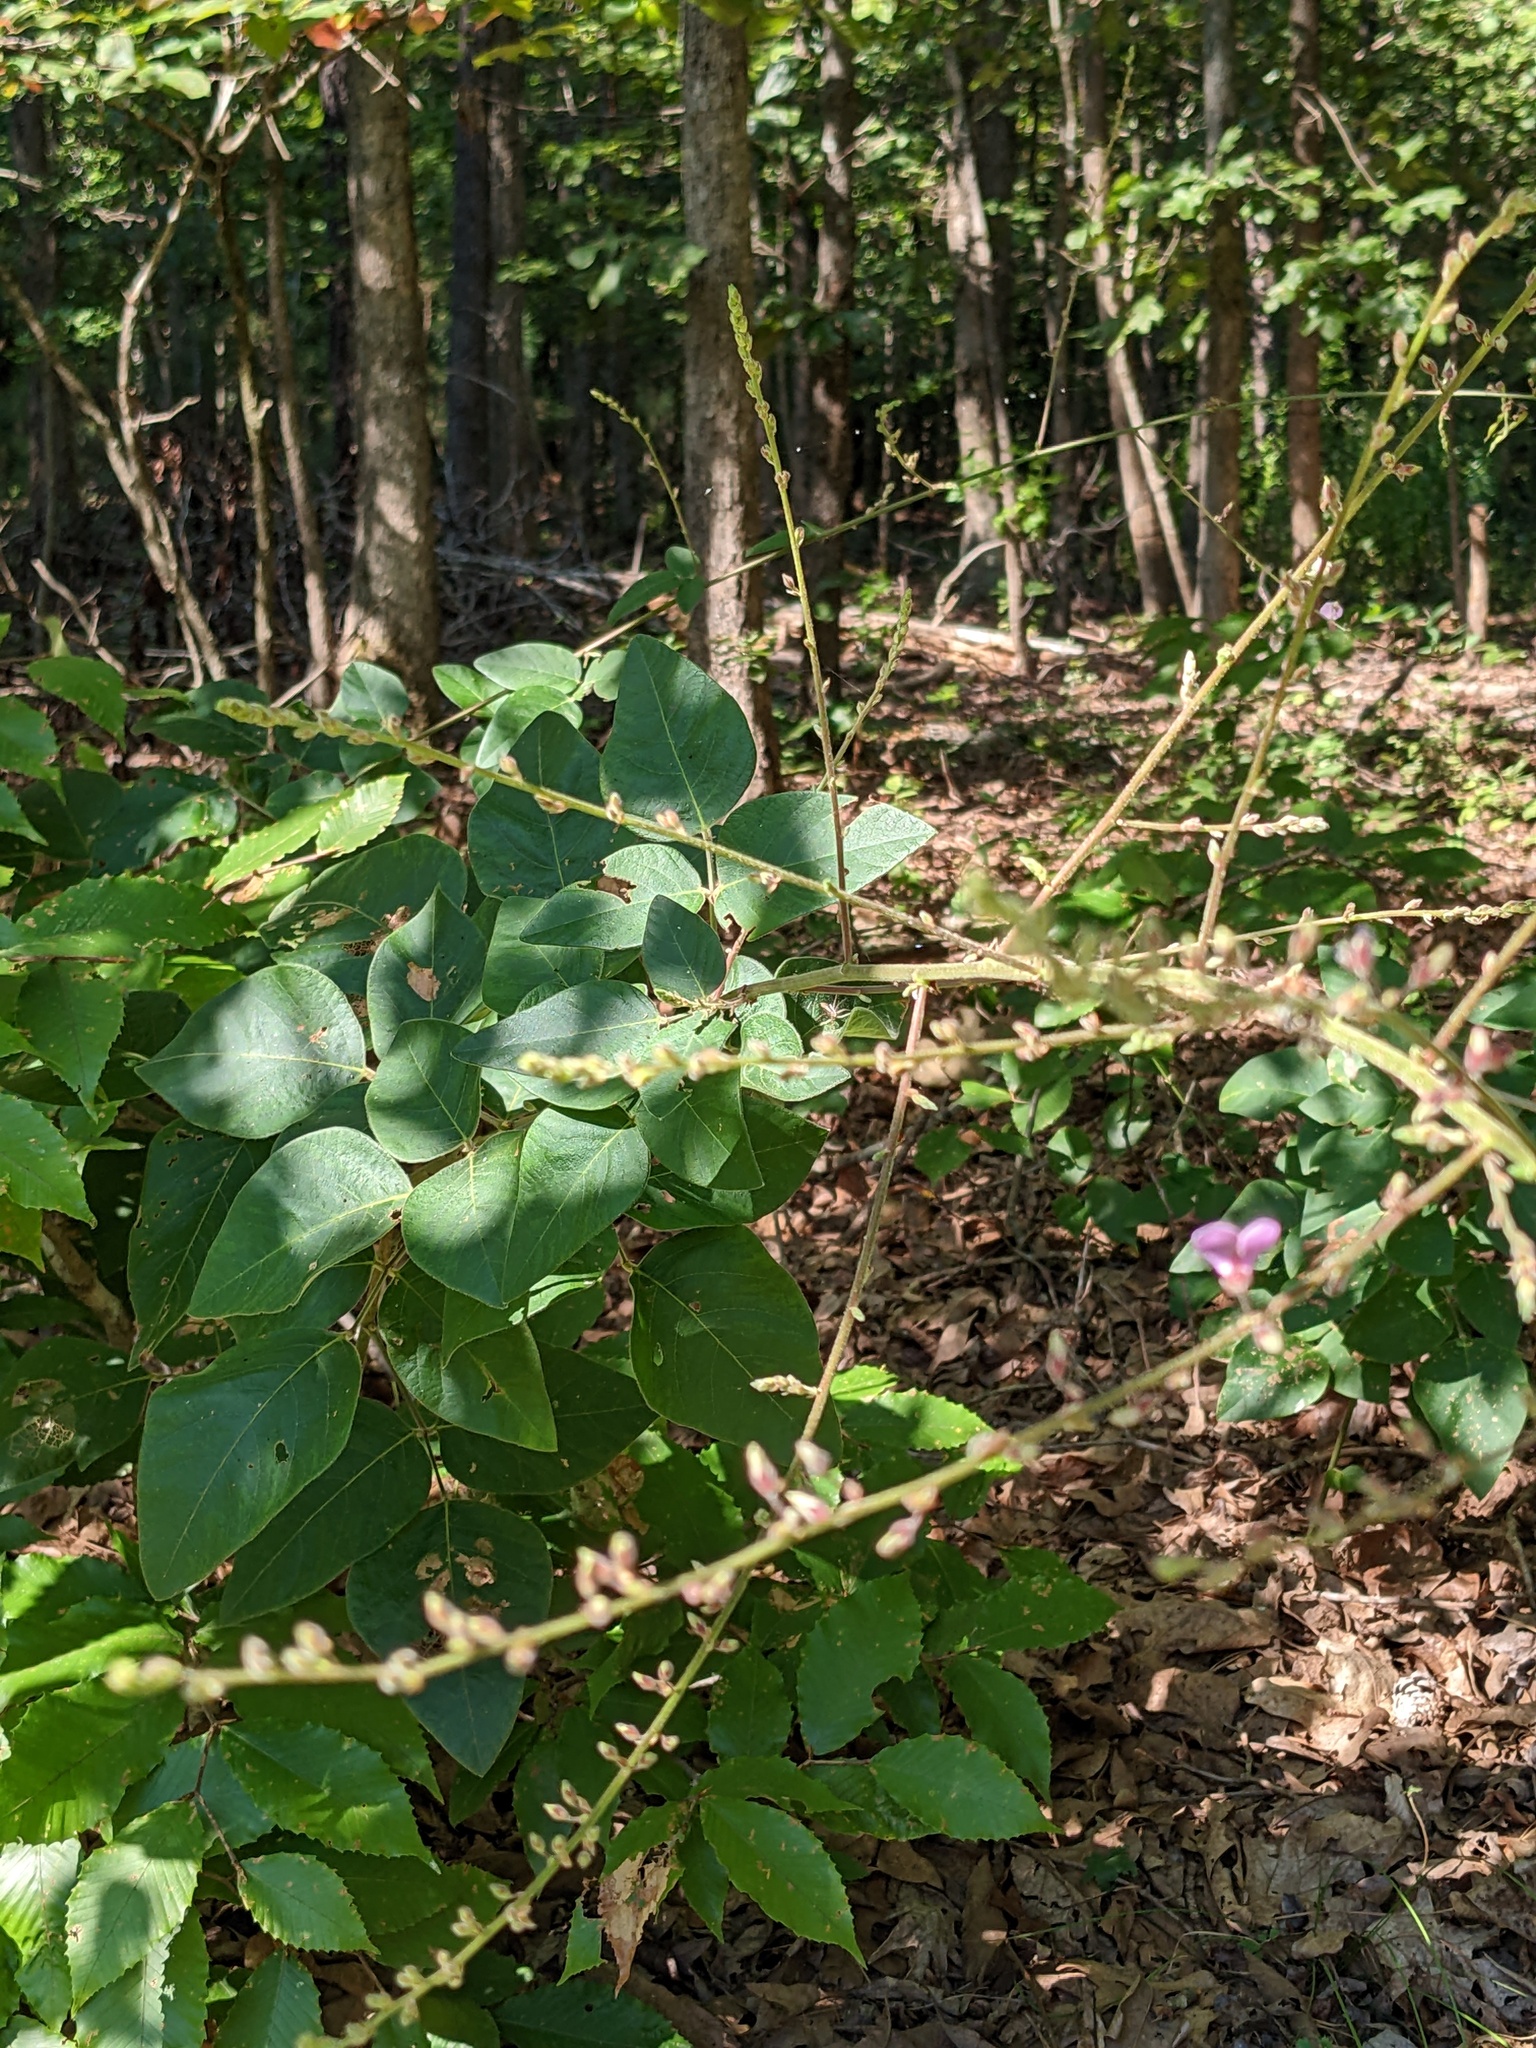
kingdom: Plantae
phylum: Tracheophyta
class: Magnoliopsida
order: Fabales
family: Fabaceae
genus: Desmodium
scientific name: Desmodium viridiflorum
